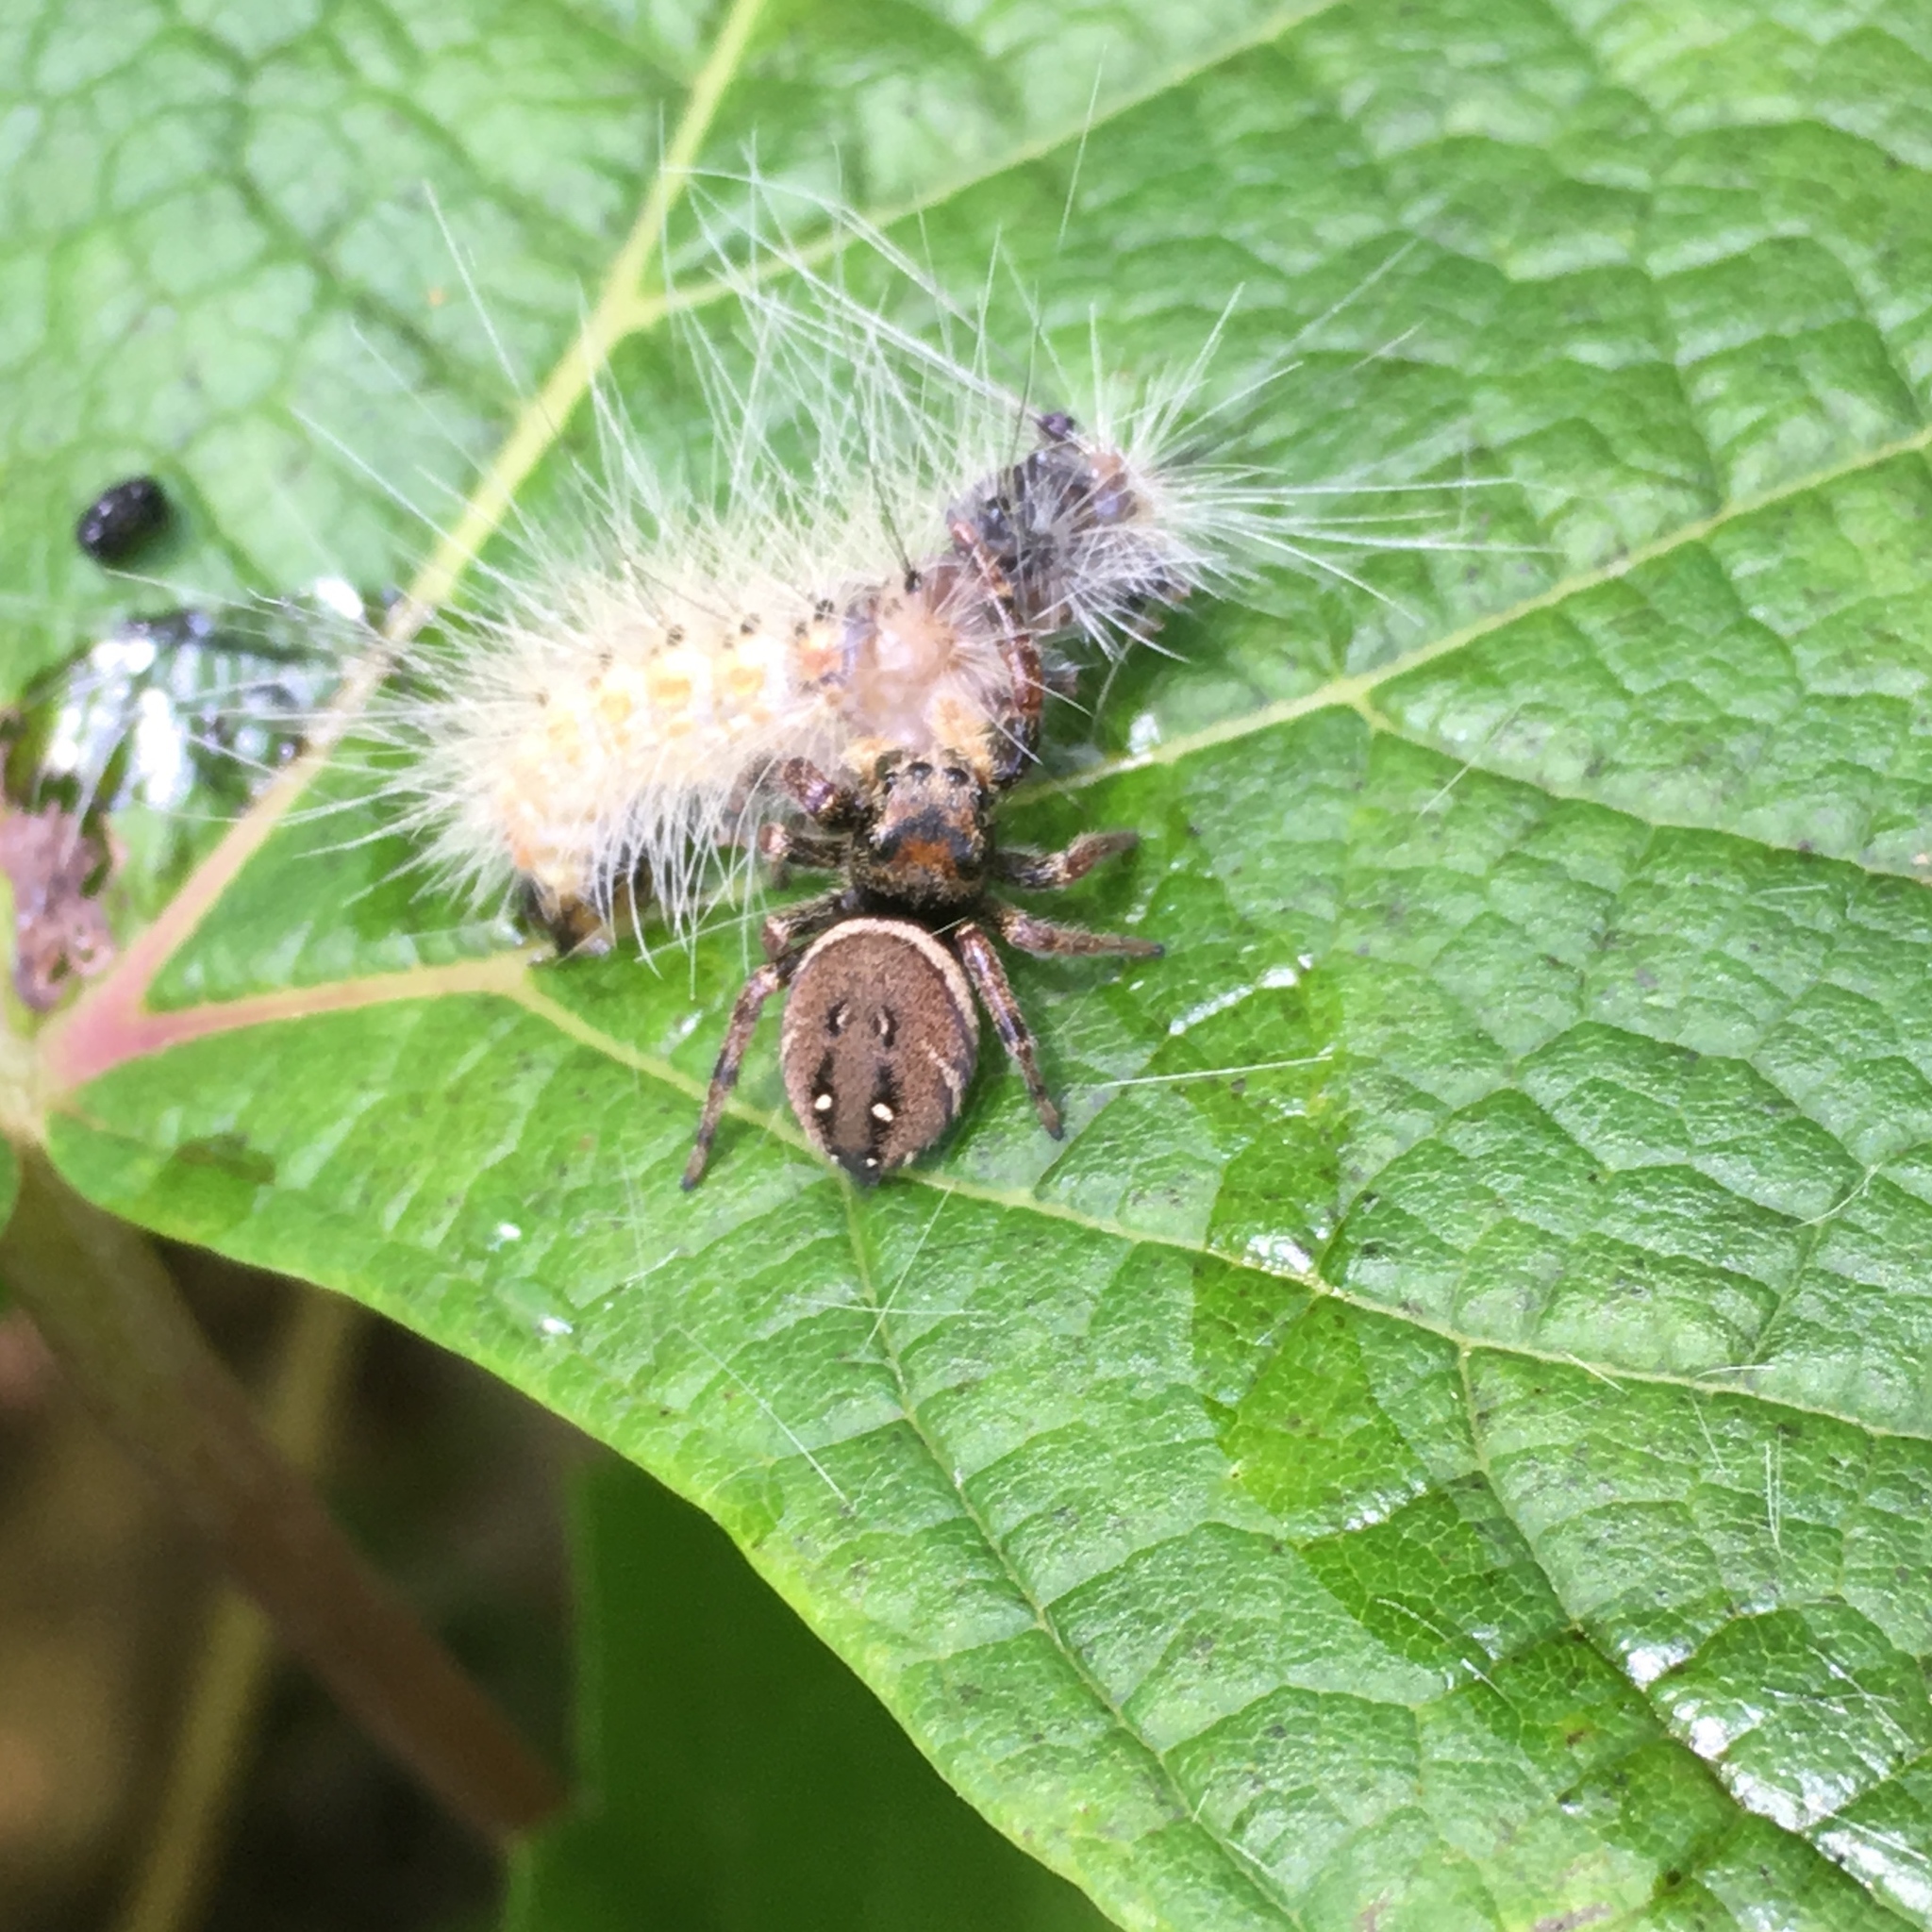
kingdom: Animalia
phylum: Arthropoda
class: Arachnida
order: Araneae
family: Salticidae
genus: Phidippus
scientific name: Phidippus whitmani
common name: Whitman's jumping spider
